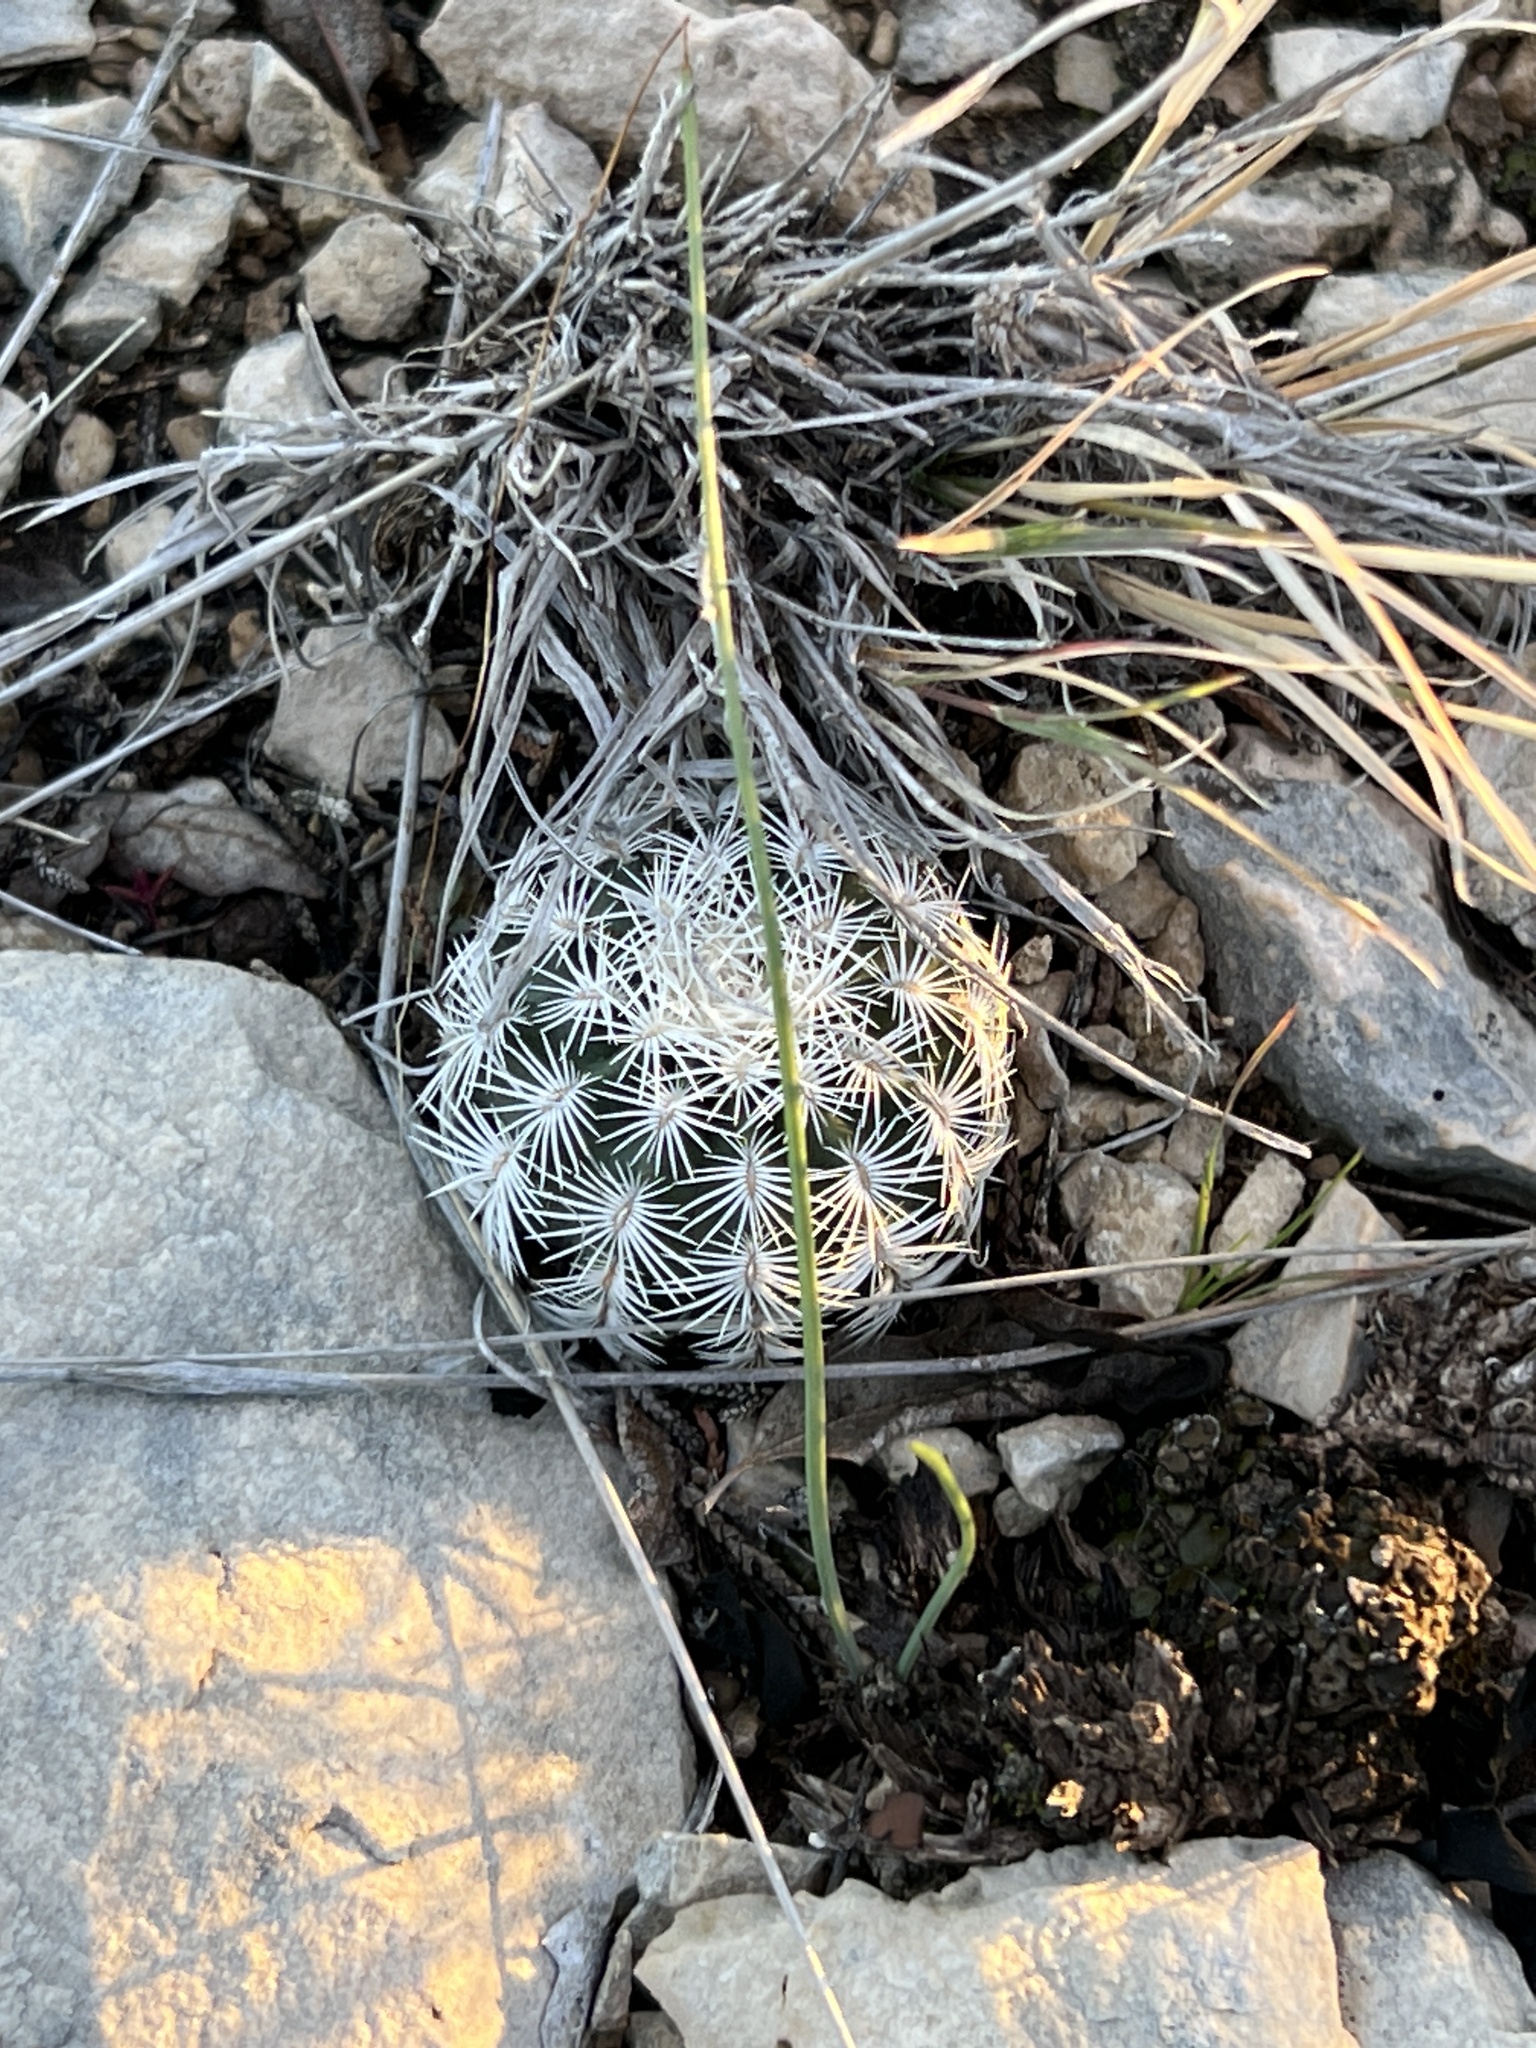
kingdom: Plantae
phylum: Tracheophyta
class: Magnoliopsida
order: Caryophyllales
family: Cactaceae
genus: Echinocereus
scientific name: Echinocereus reichenbachii
